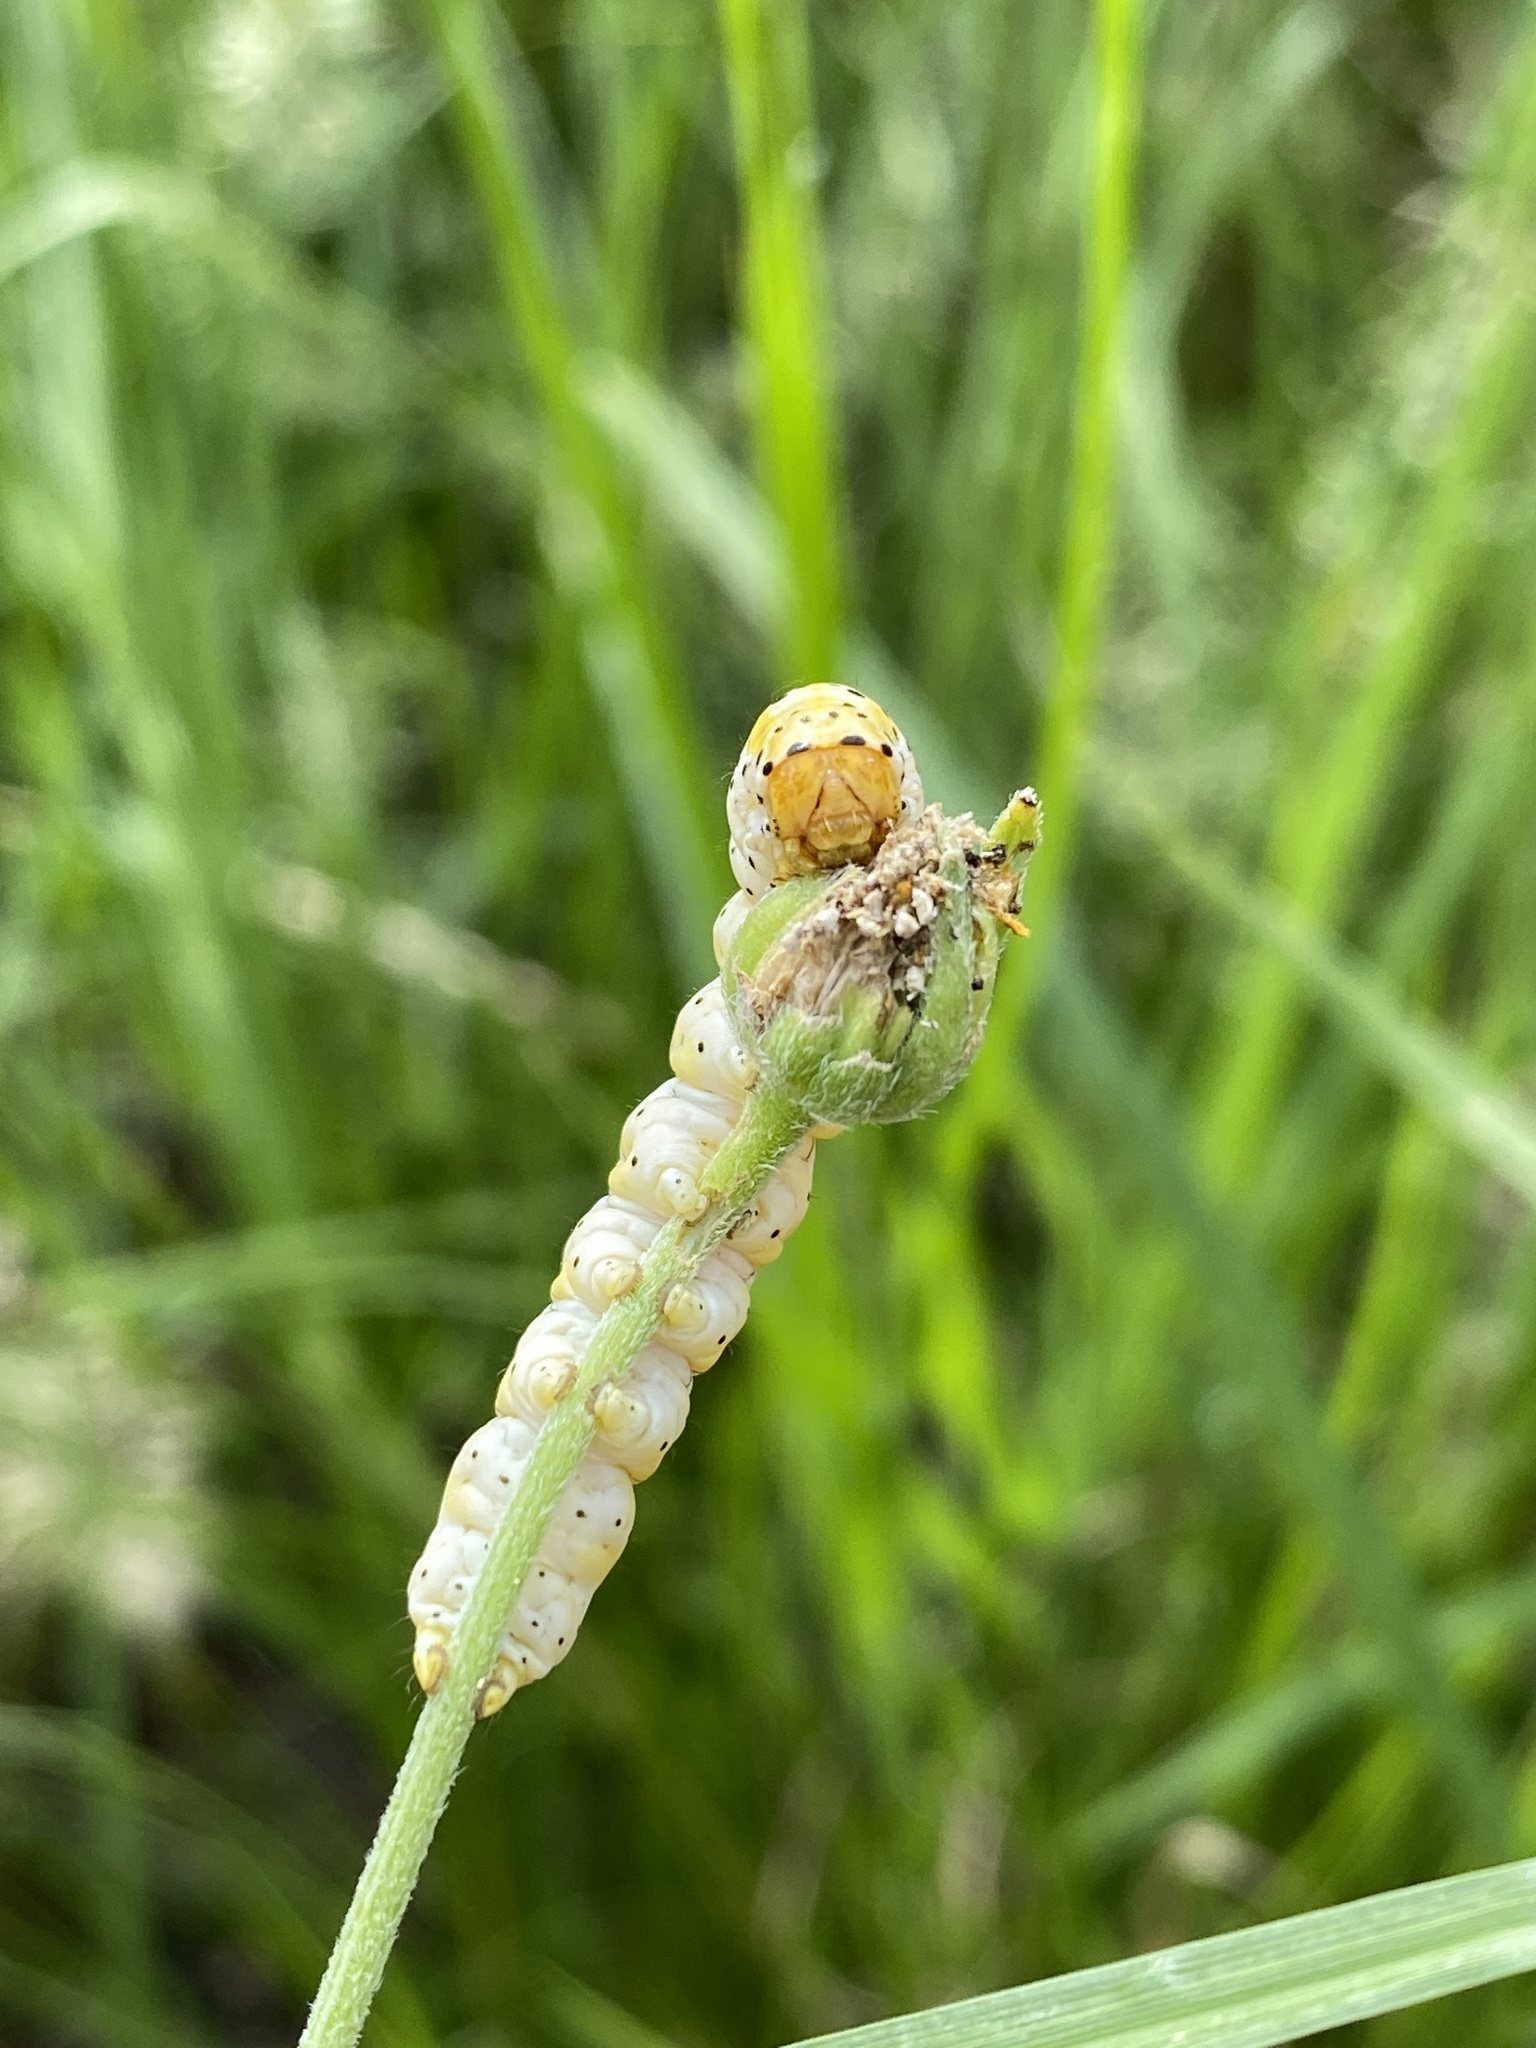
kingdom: Animalia
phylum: Arthropoda
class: Insecta
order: Lepidoptera
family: Noctuidae
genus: Basilodes
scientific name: Basilodes chrysopis
